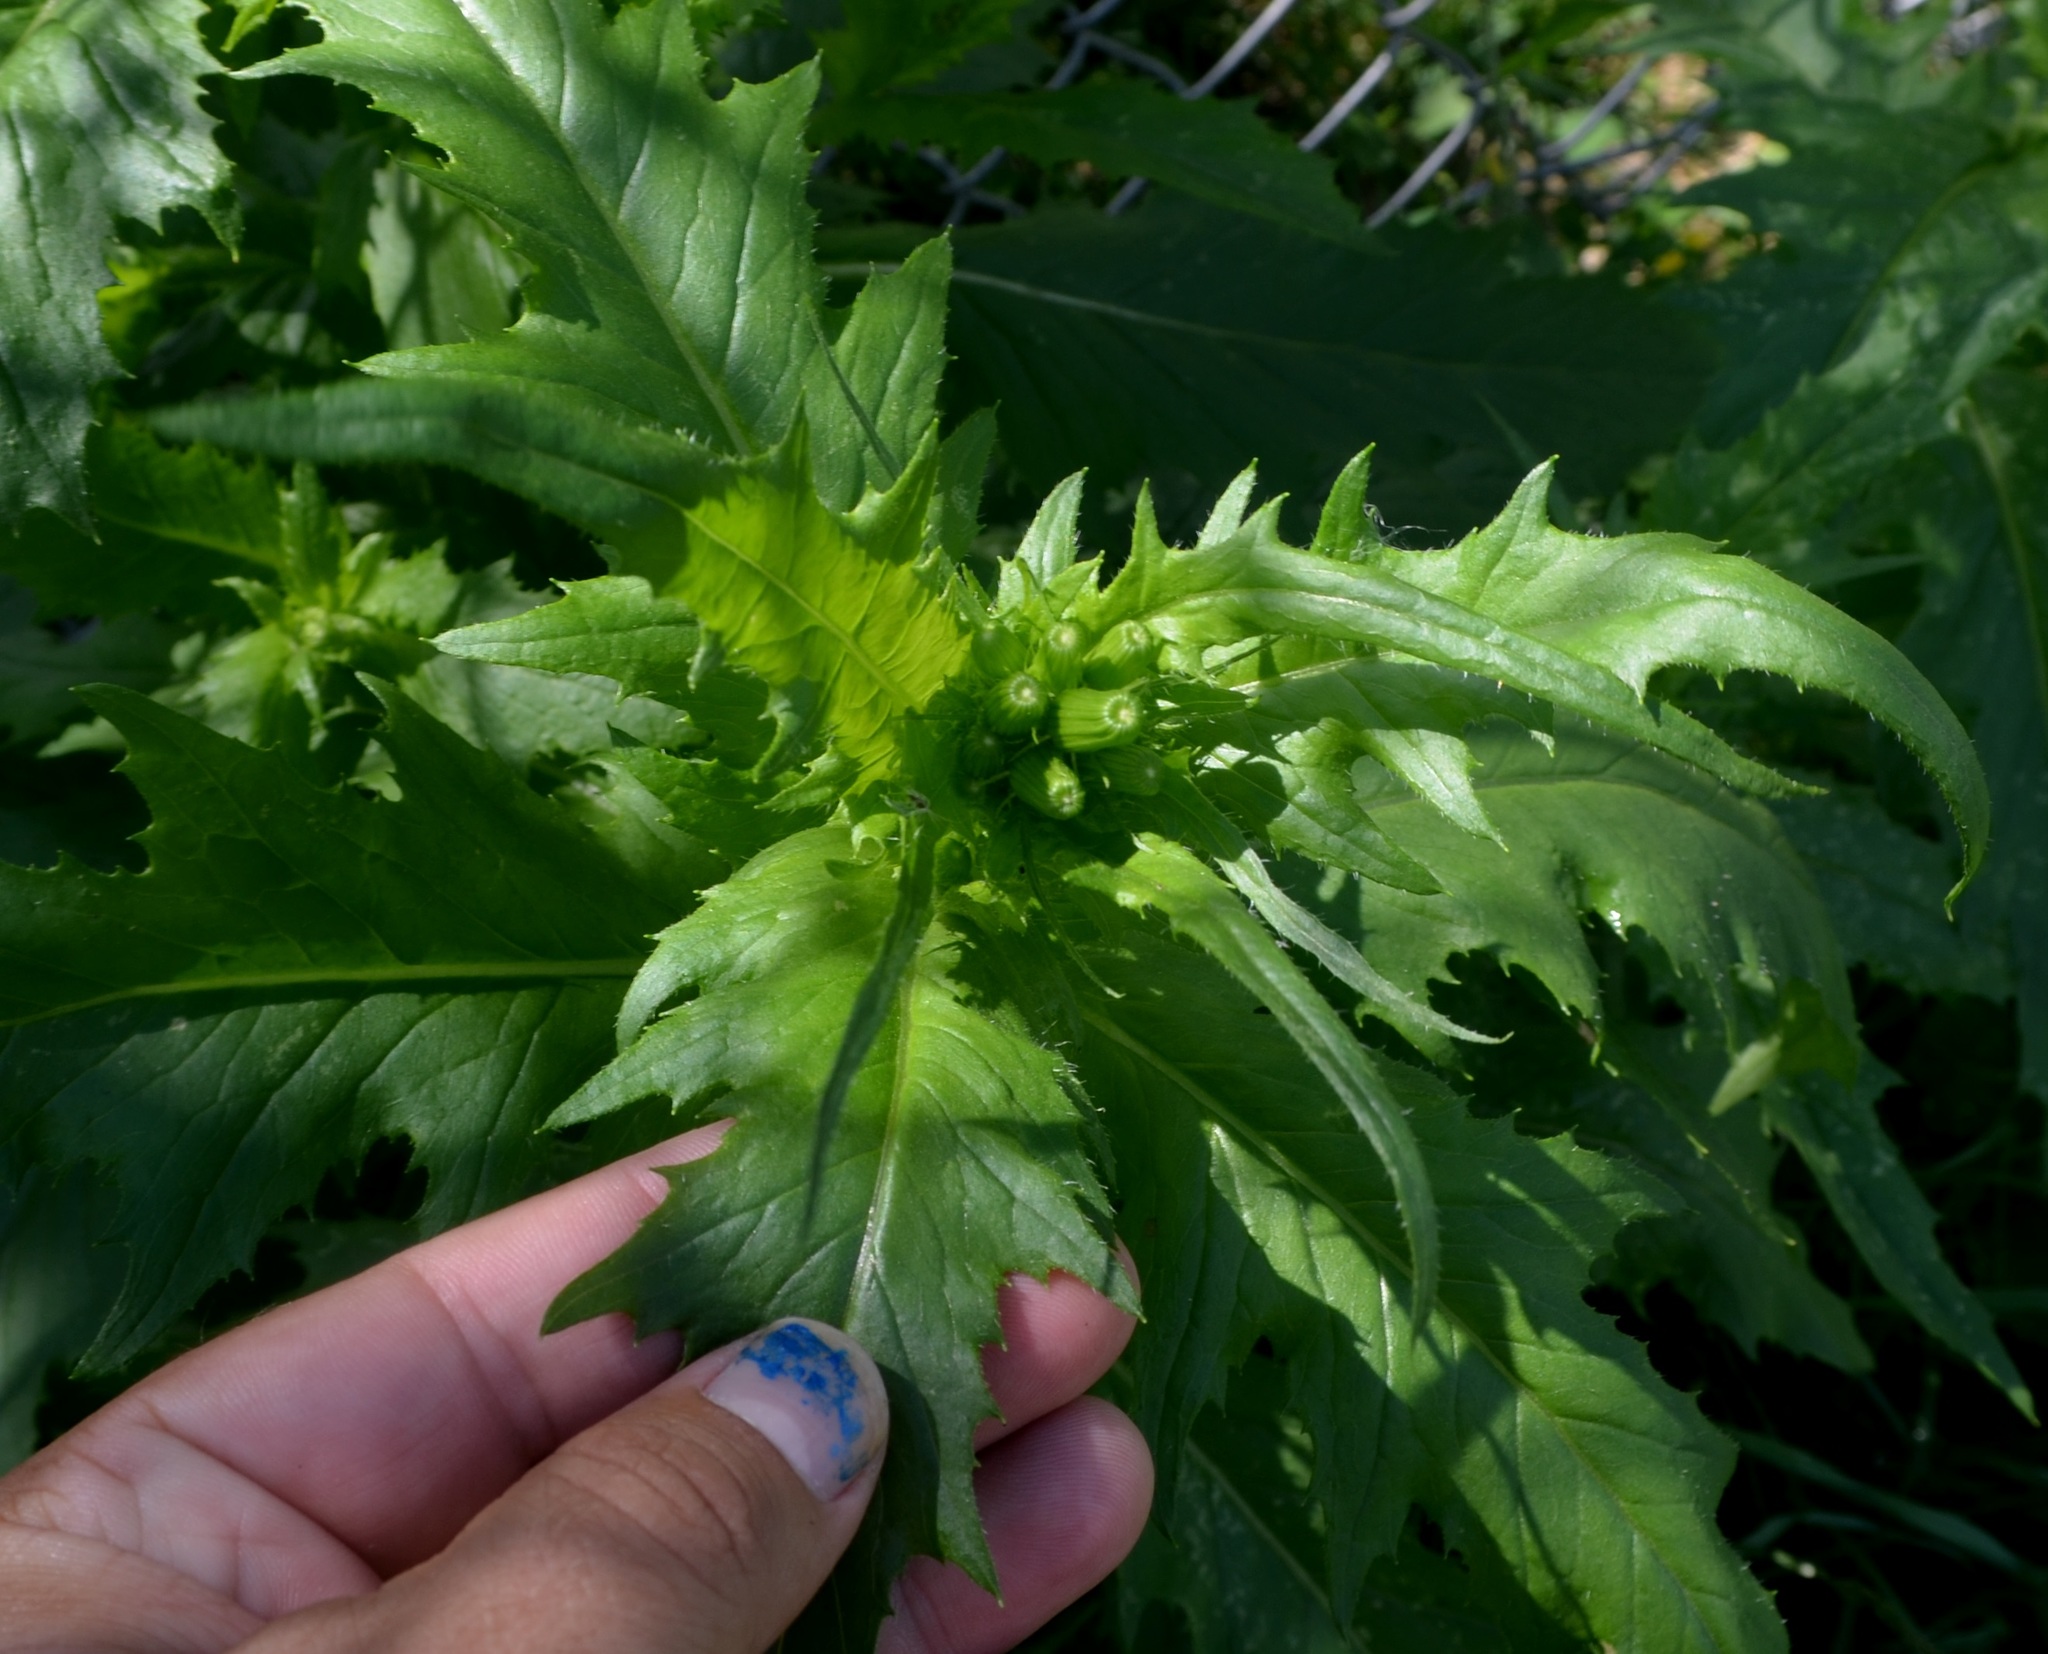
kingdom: Plantae
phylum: Tracheophyta
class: Magnoliopsida
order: Asterales
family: Asteraceae
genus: Erechtites
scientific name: Erechtites hieraciifolius
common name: American burnweed
